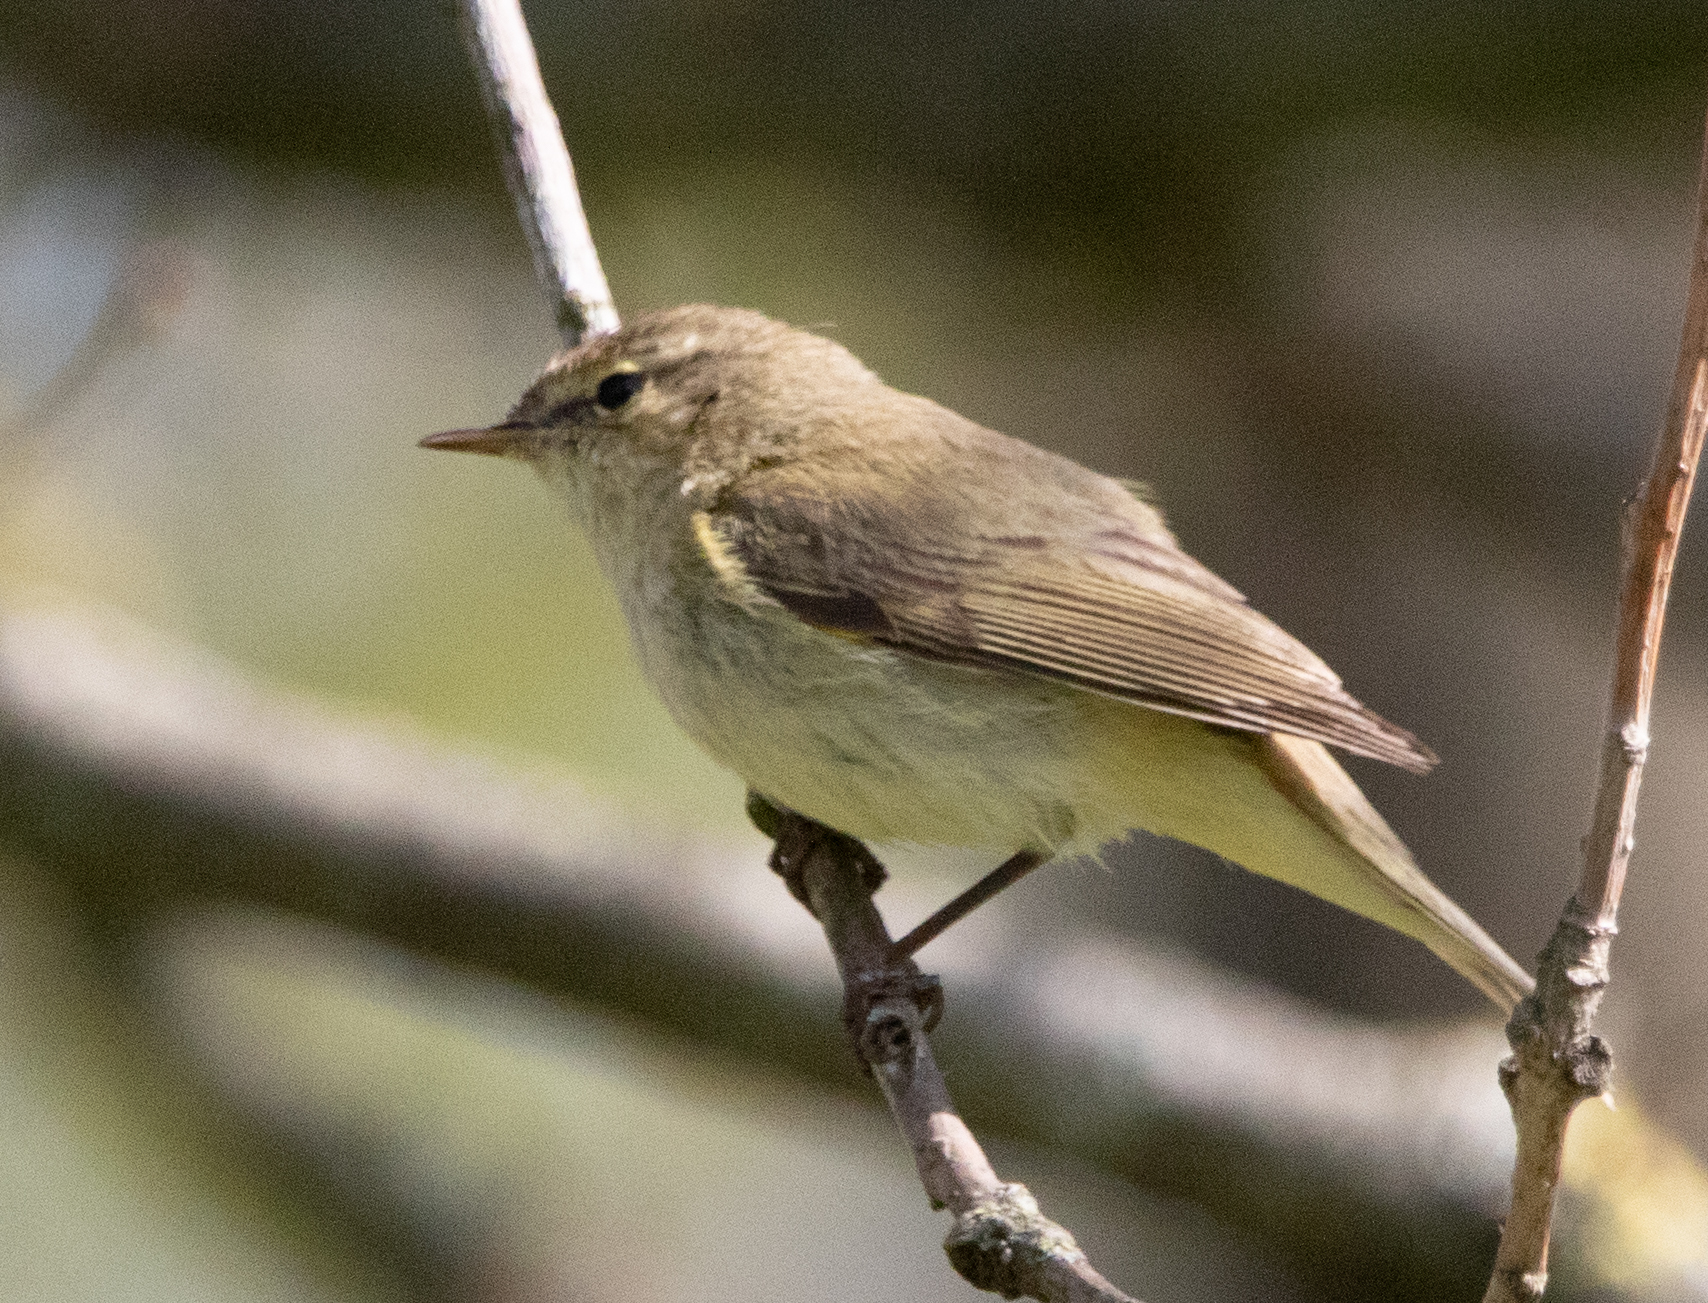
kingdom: Animalia
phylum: Chordata
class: Aves
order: Passeriformes
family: Phylloscopidae
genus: Phylloscopus
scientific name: Phylloscopus collybita
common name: Common chiffchaff
